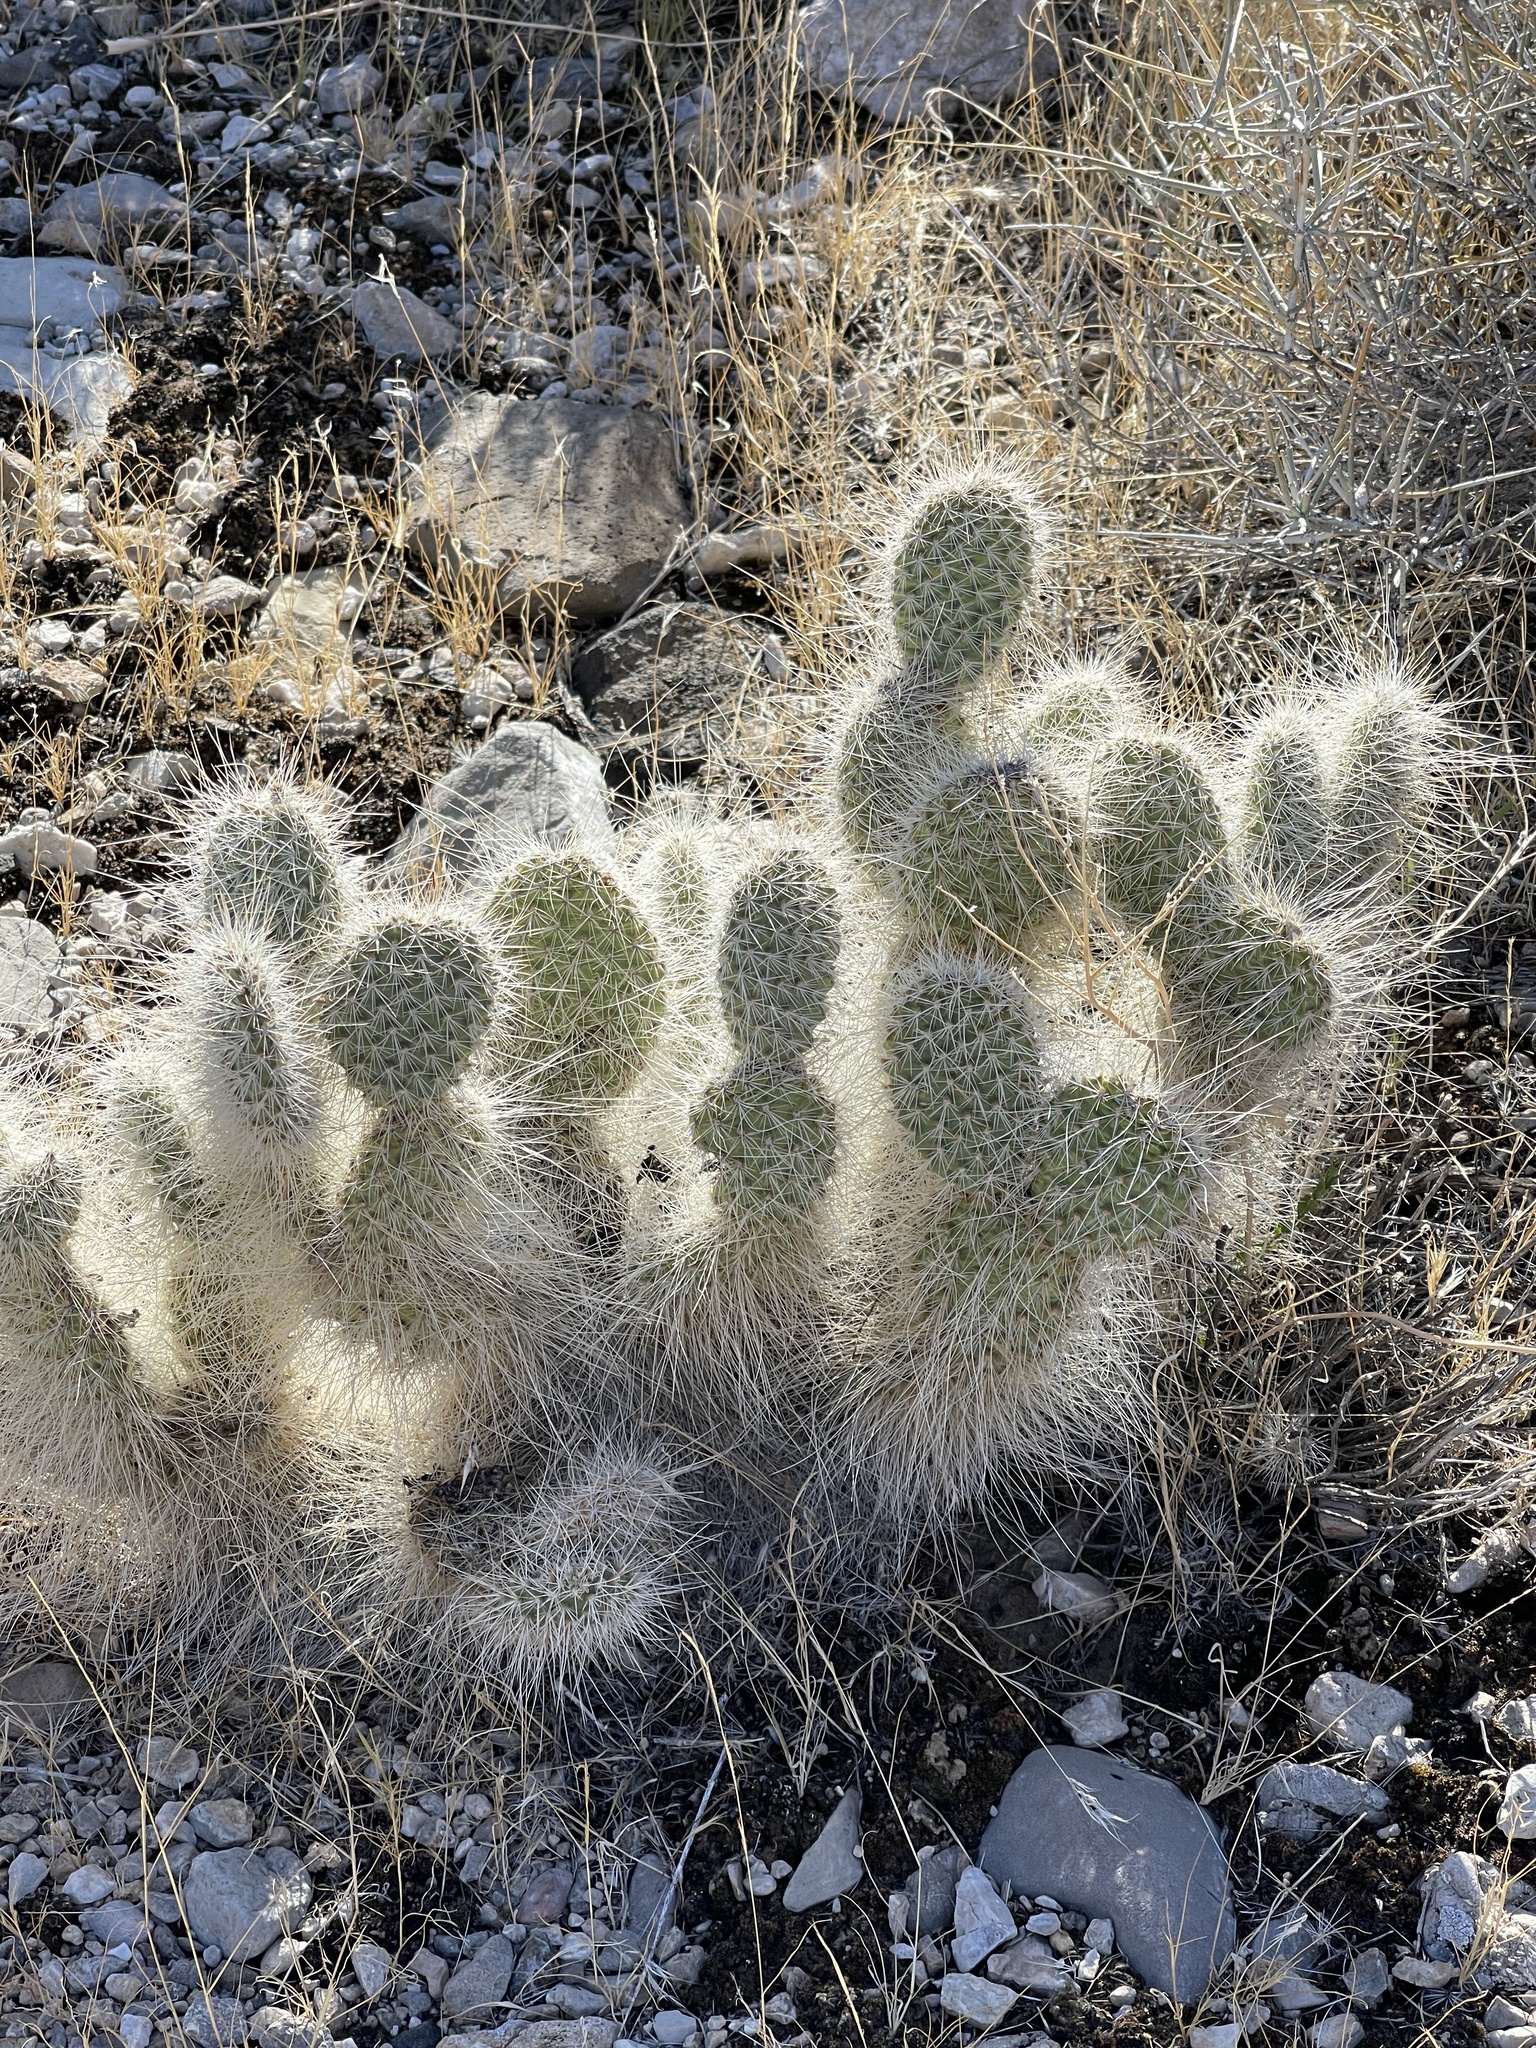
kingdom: Plantae
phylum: Tracheophyta
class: Magnoliopsida
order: Caryophyllales
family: Cactaceae
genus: Opuntia
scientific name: Opuntia polyacantha
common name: Plains prickly-pear
